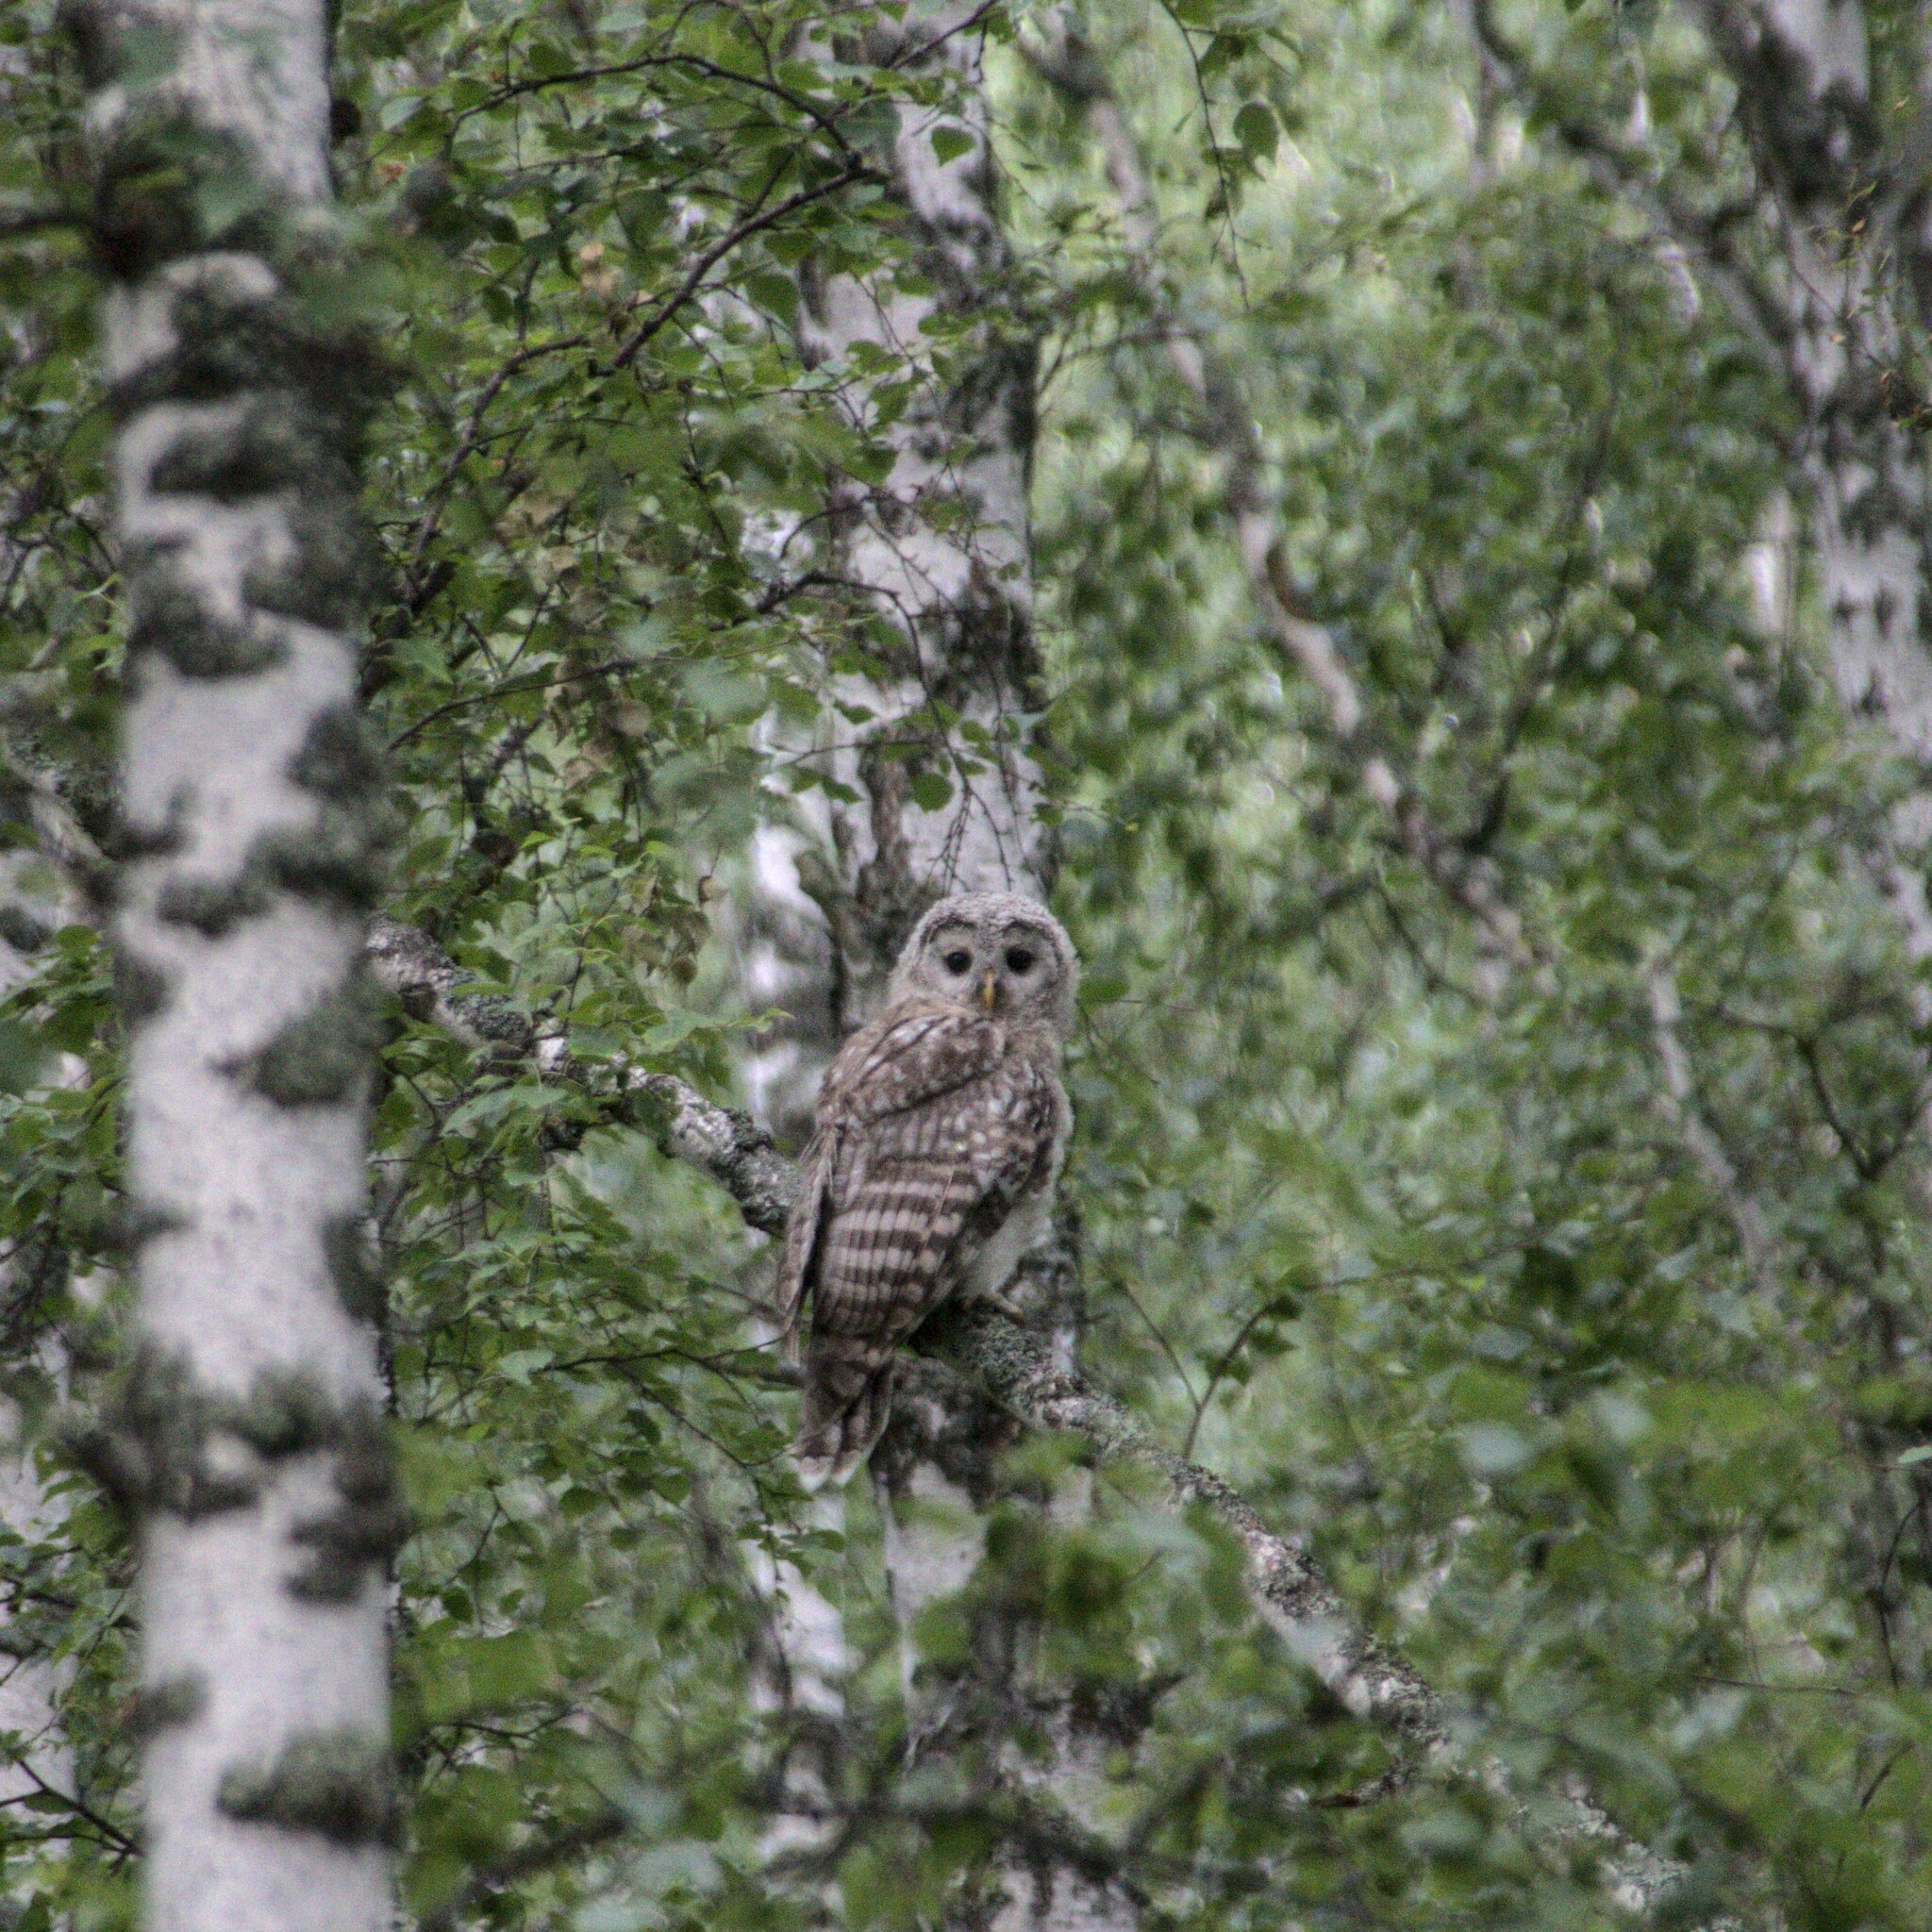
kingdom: Animalia
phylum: Chordata
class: Aves
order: Strigiformes
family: Strigidae
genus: Strix
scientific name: Strix uralensis
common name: Ural owl
